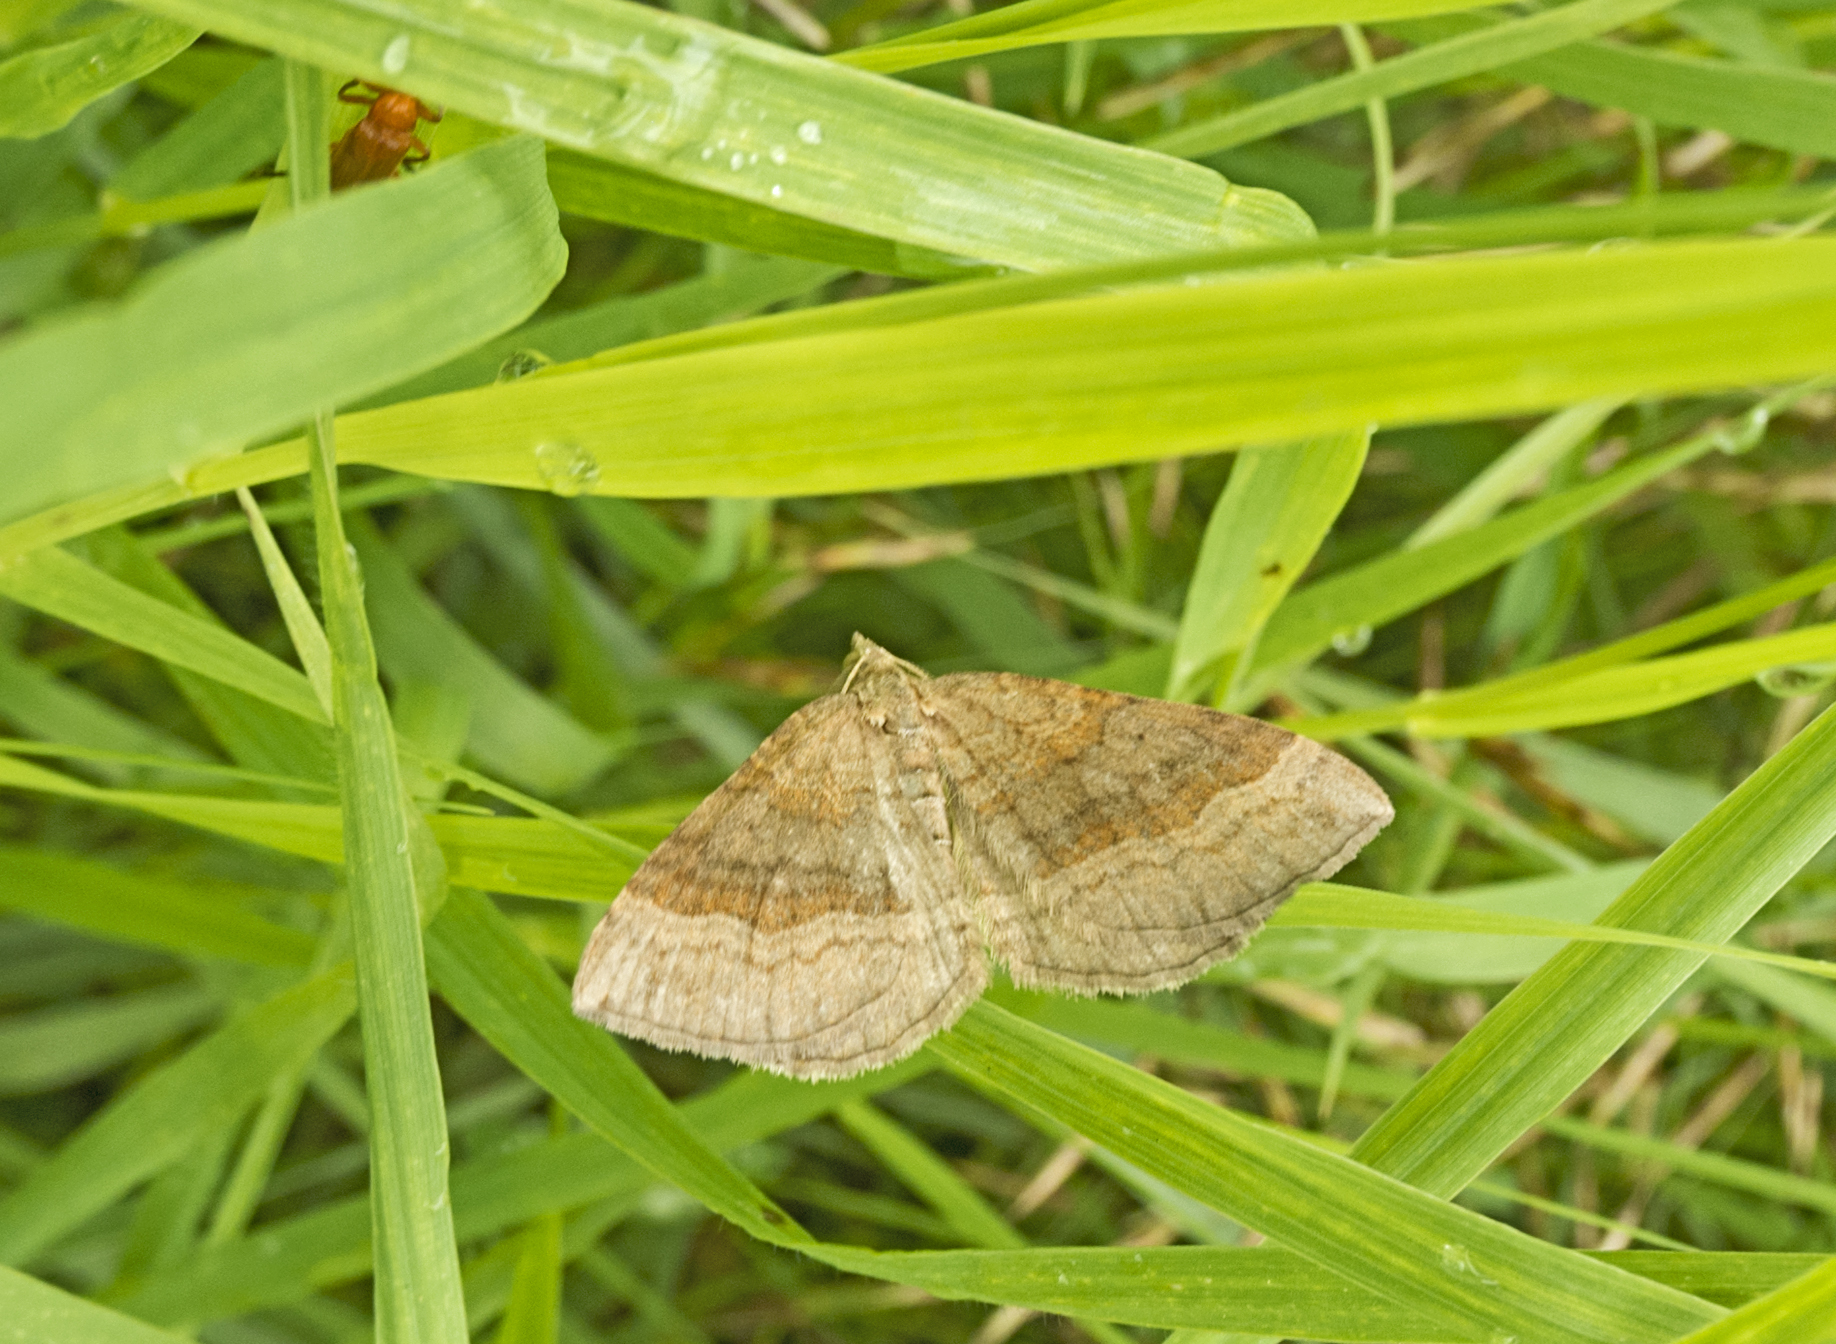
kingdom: Animalia
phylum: Arthropoda
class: Insecta
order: Lepidoptera
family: Geometridae
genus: Scotopteryx
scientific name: Scotopteryx chenopodiata
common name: Shaded broad-bar
